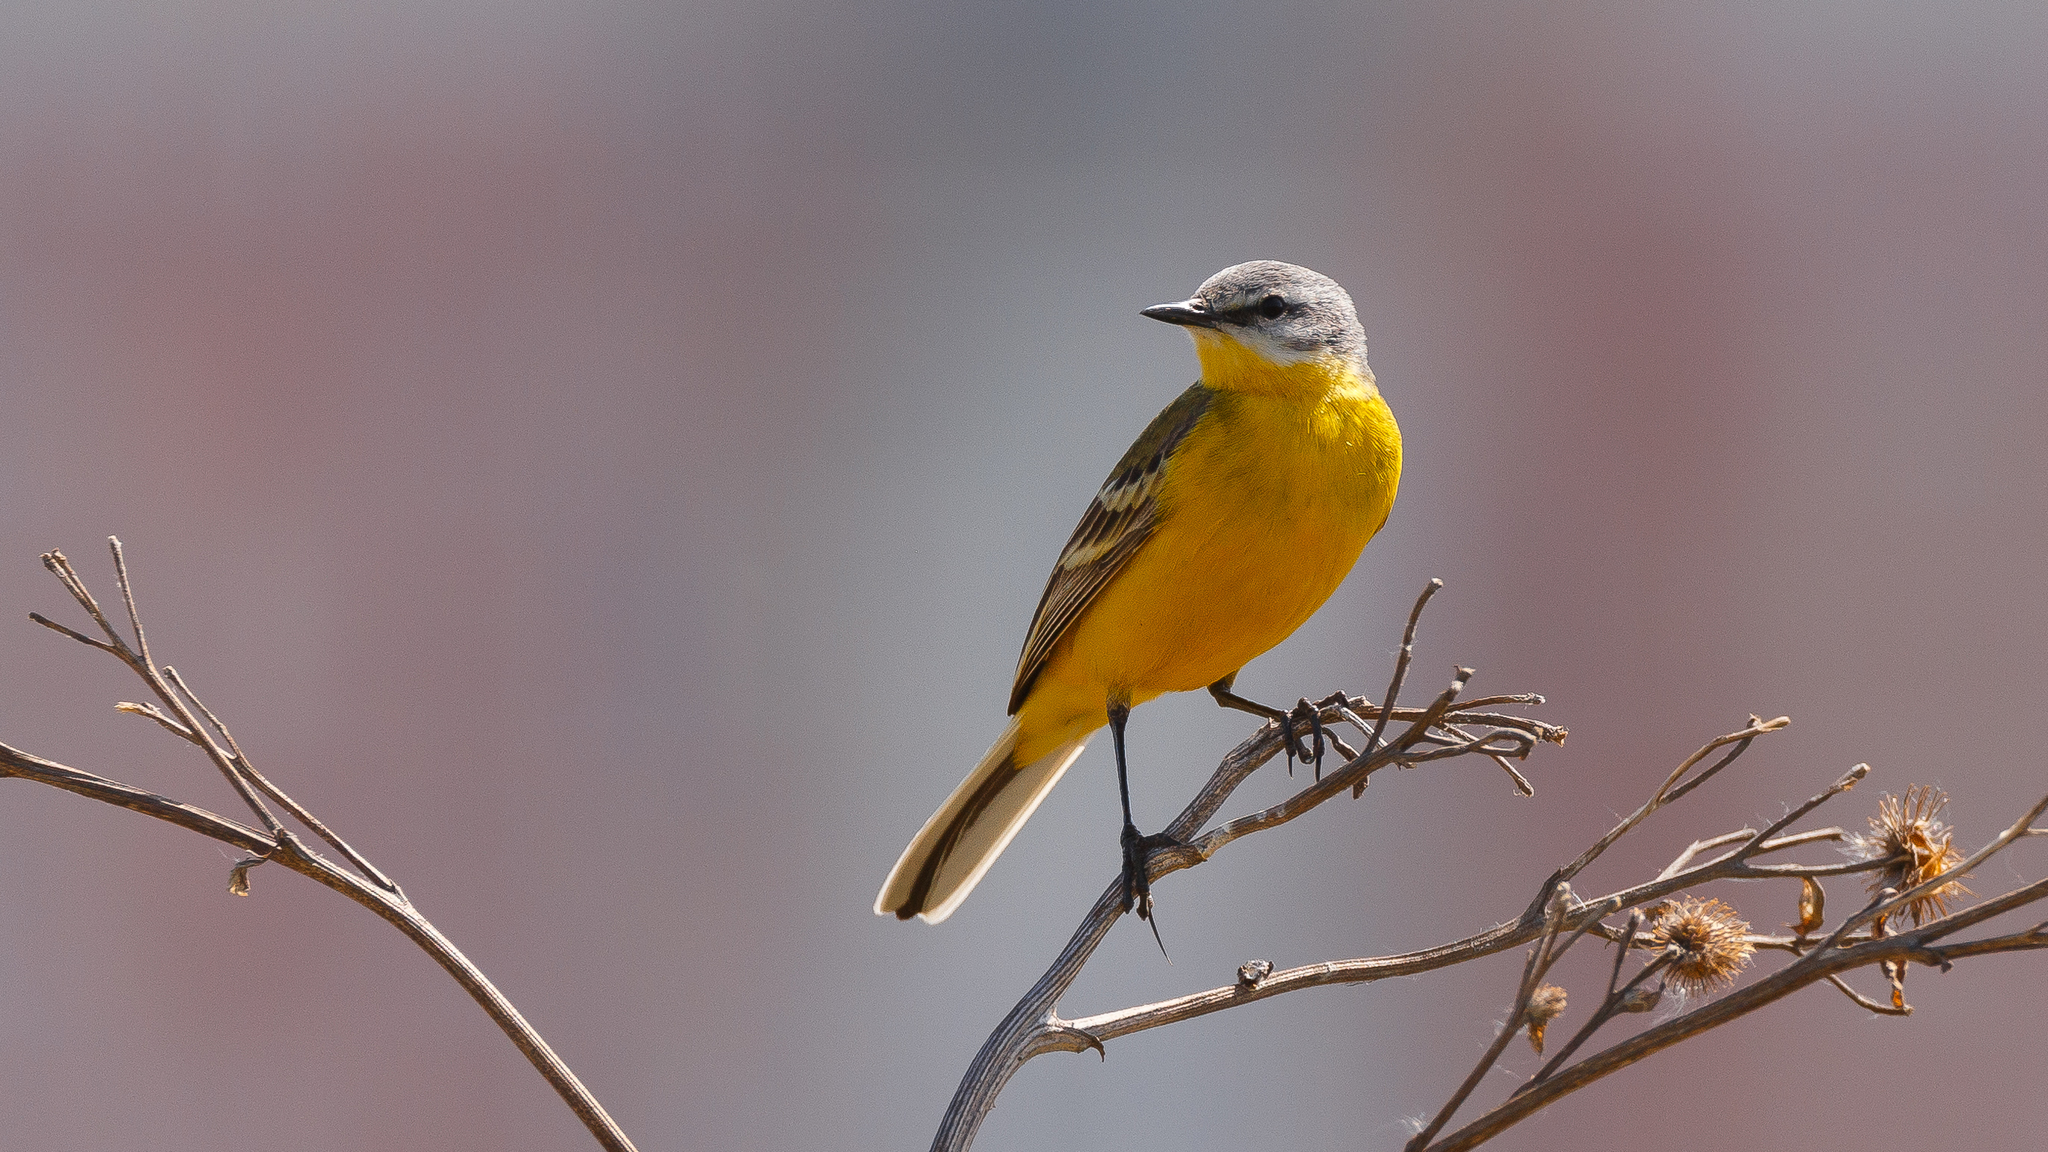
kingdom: Animalia
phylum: Chordata
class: Aves
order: Passeriformes
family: Motacillidae
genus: Motacilla
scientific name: Motacilla flava
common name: Western yellow wagtail
